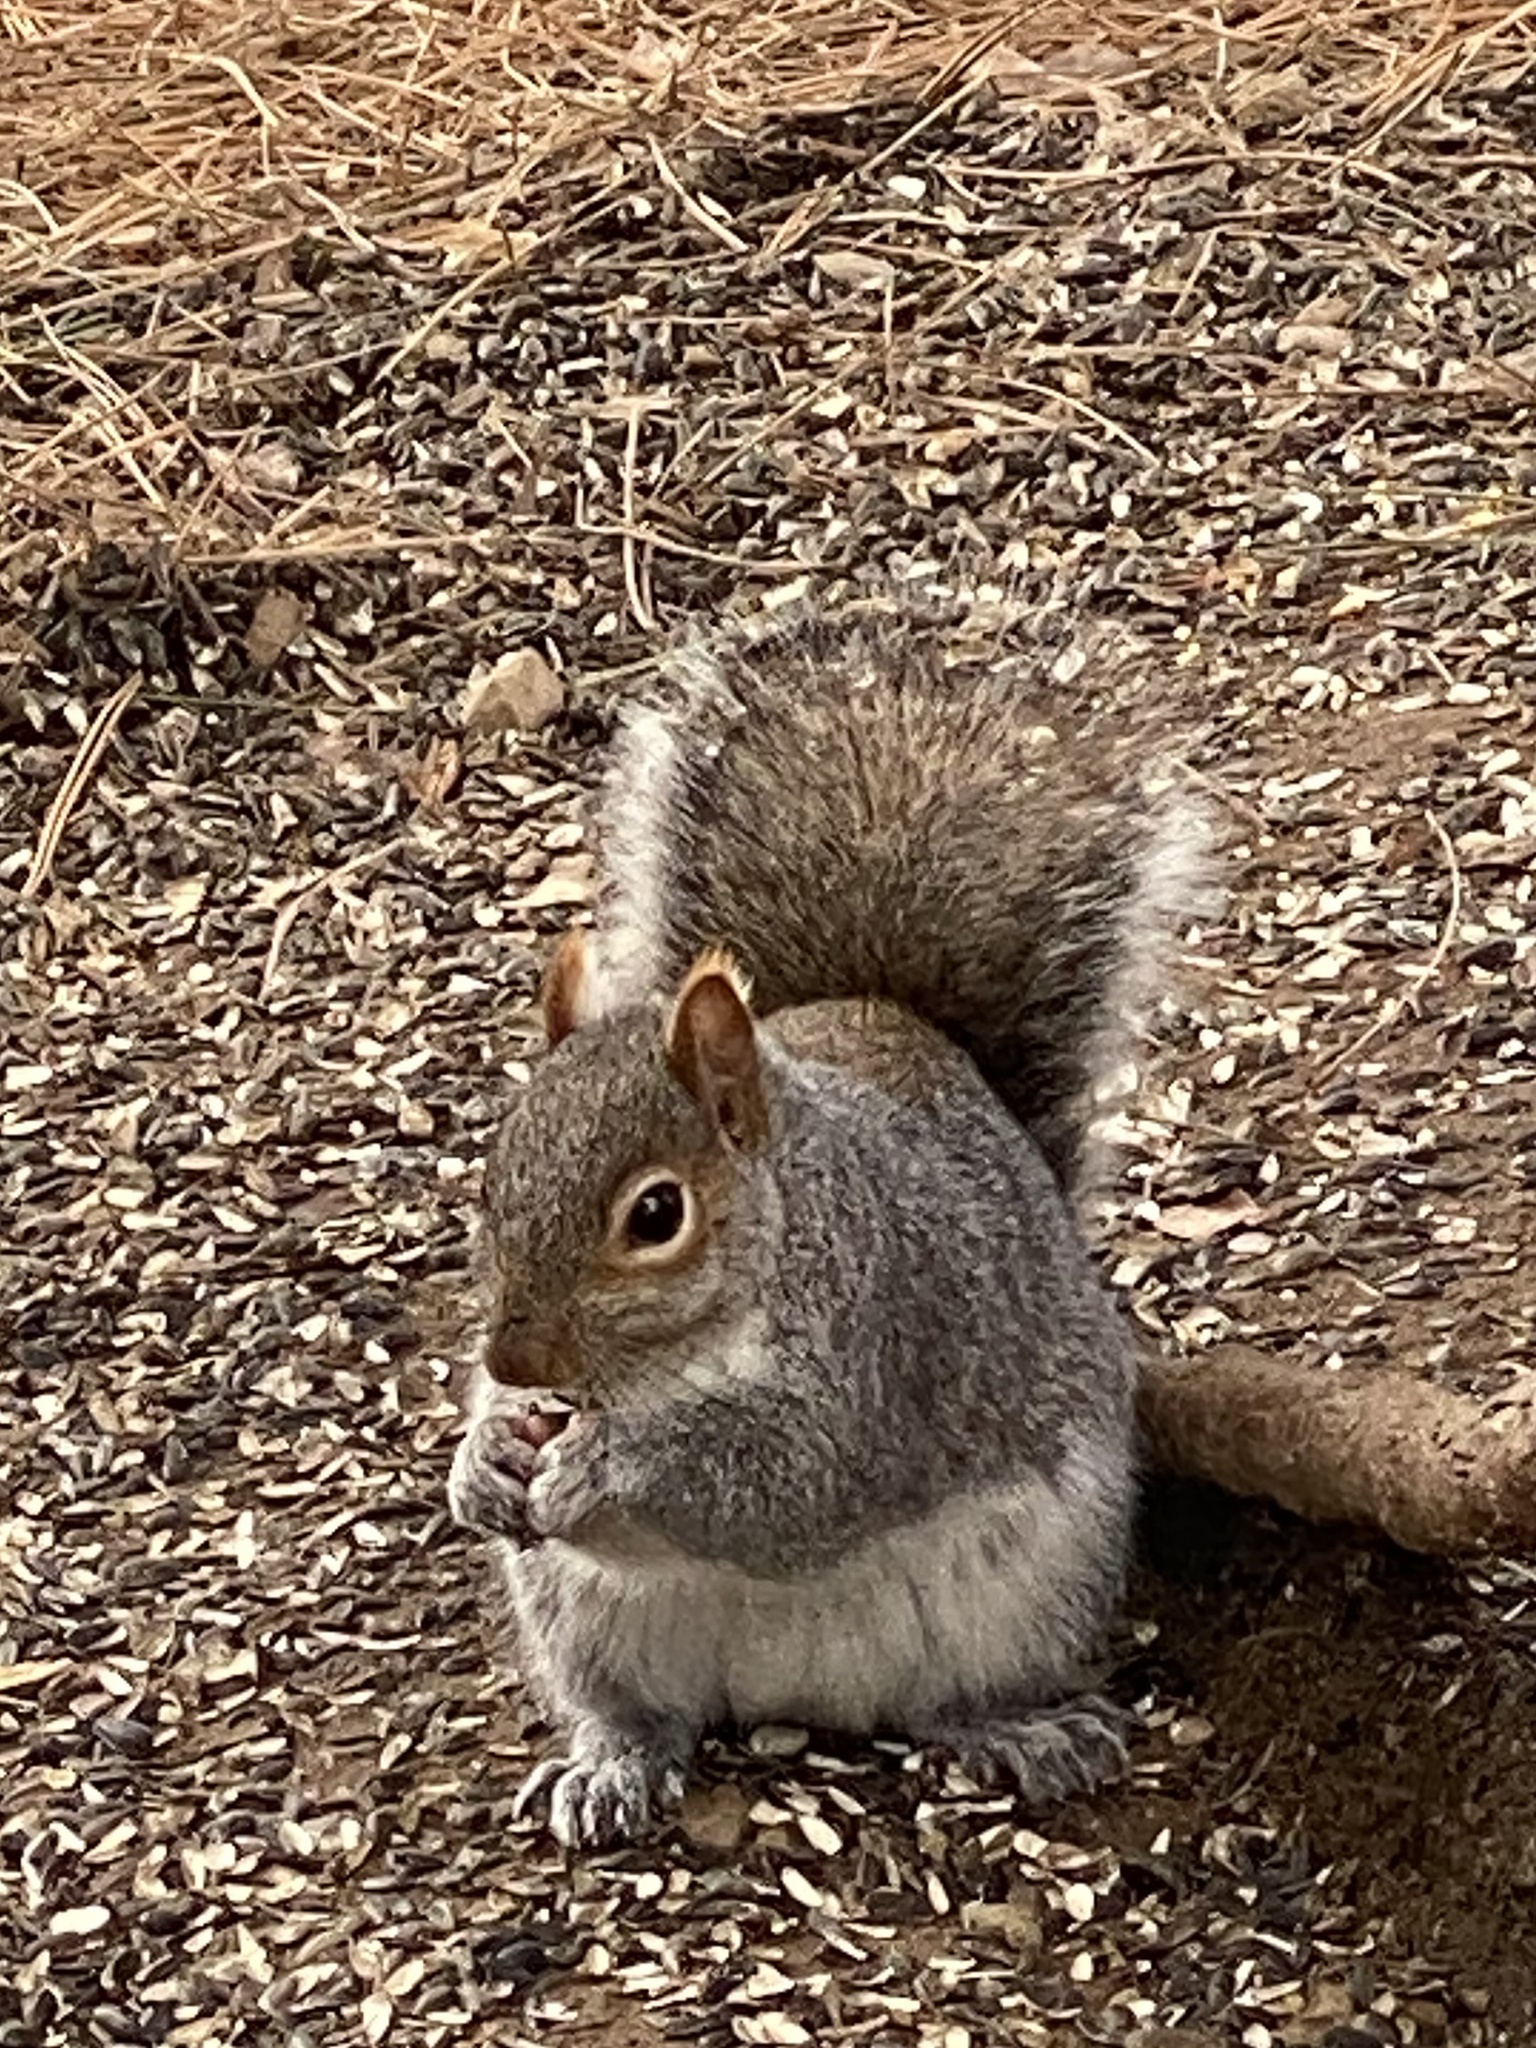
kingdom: Animalia
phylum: Chordata
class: Mammalia
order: Rodentia
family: Sciuridae
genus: Sciurus
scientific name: Sciurus carolinensis
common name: Eastern gray squirrel
